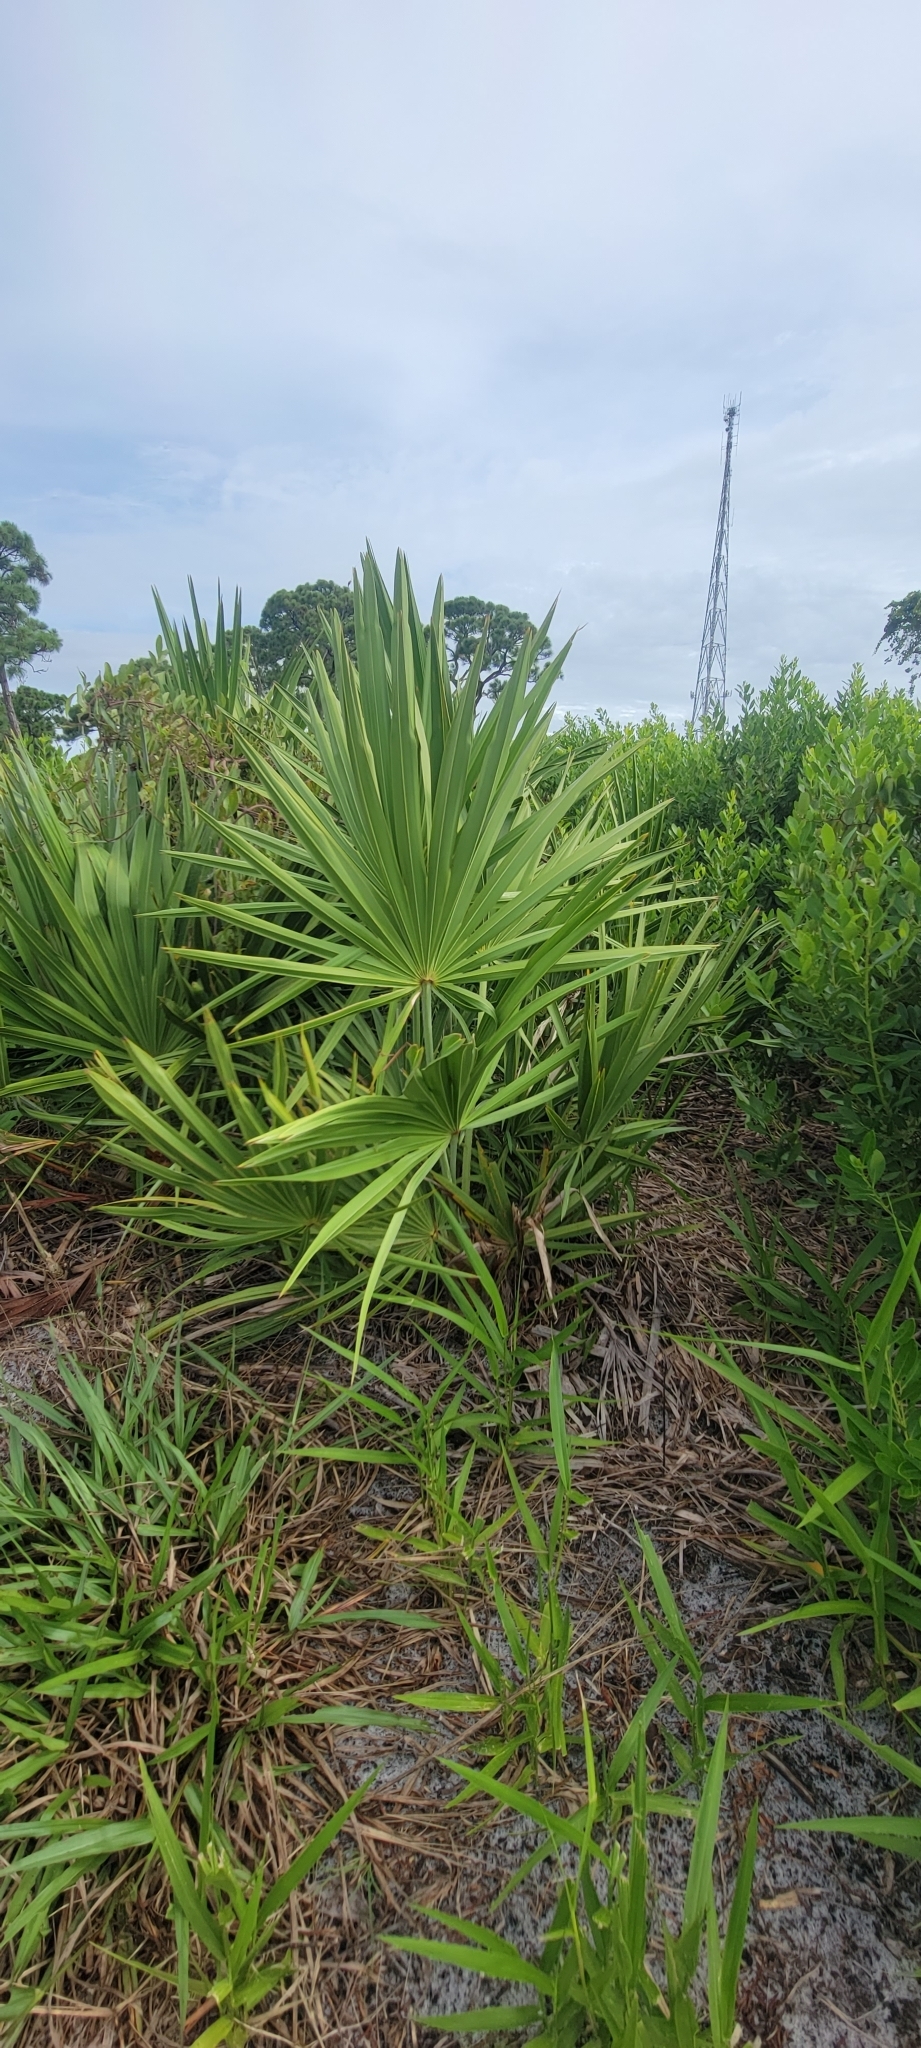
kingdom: Plantae
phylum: Tracheophyta
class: Liliopsida
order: Arecales
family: Arecaceae
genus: Serenoa
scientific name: Serenoa repens
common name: Saw-palmetto
